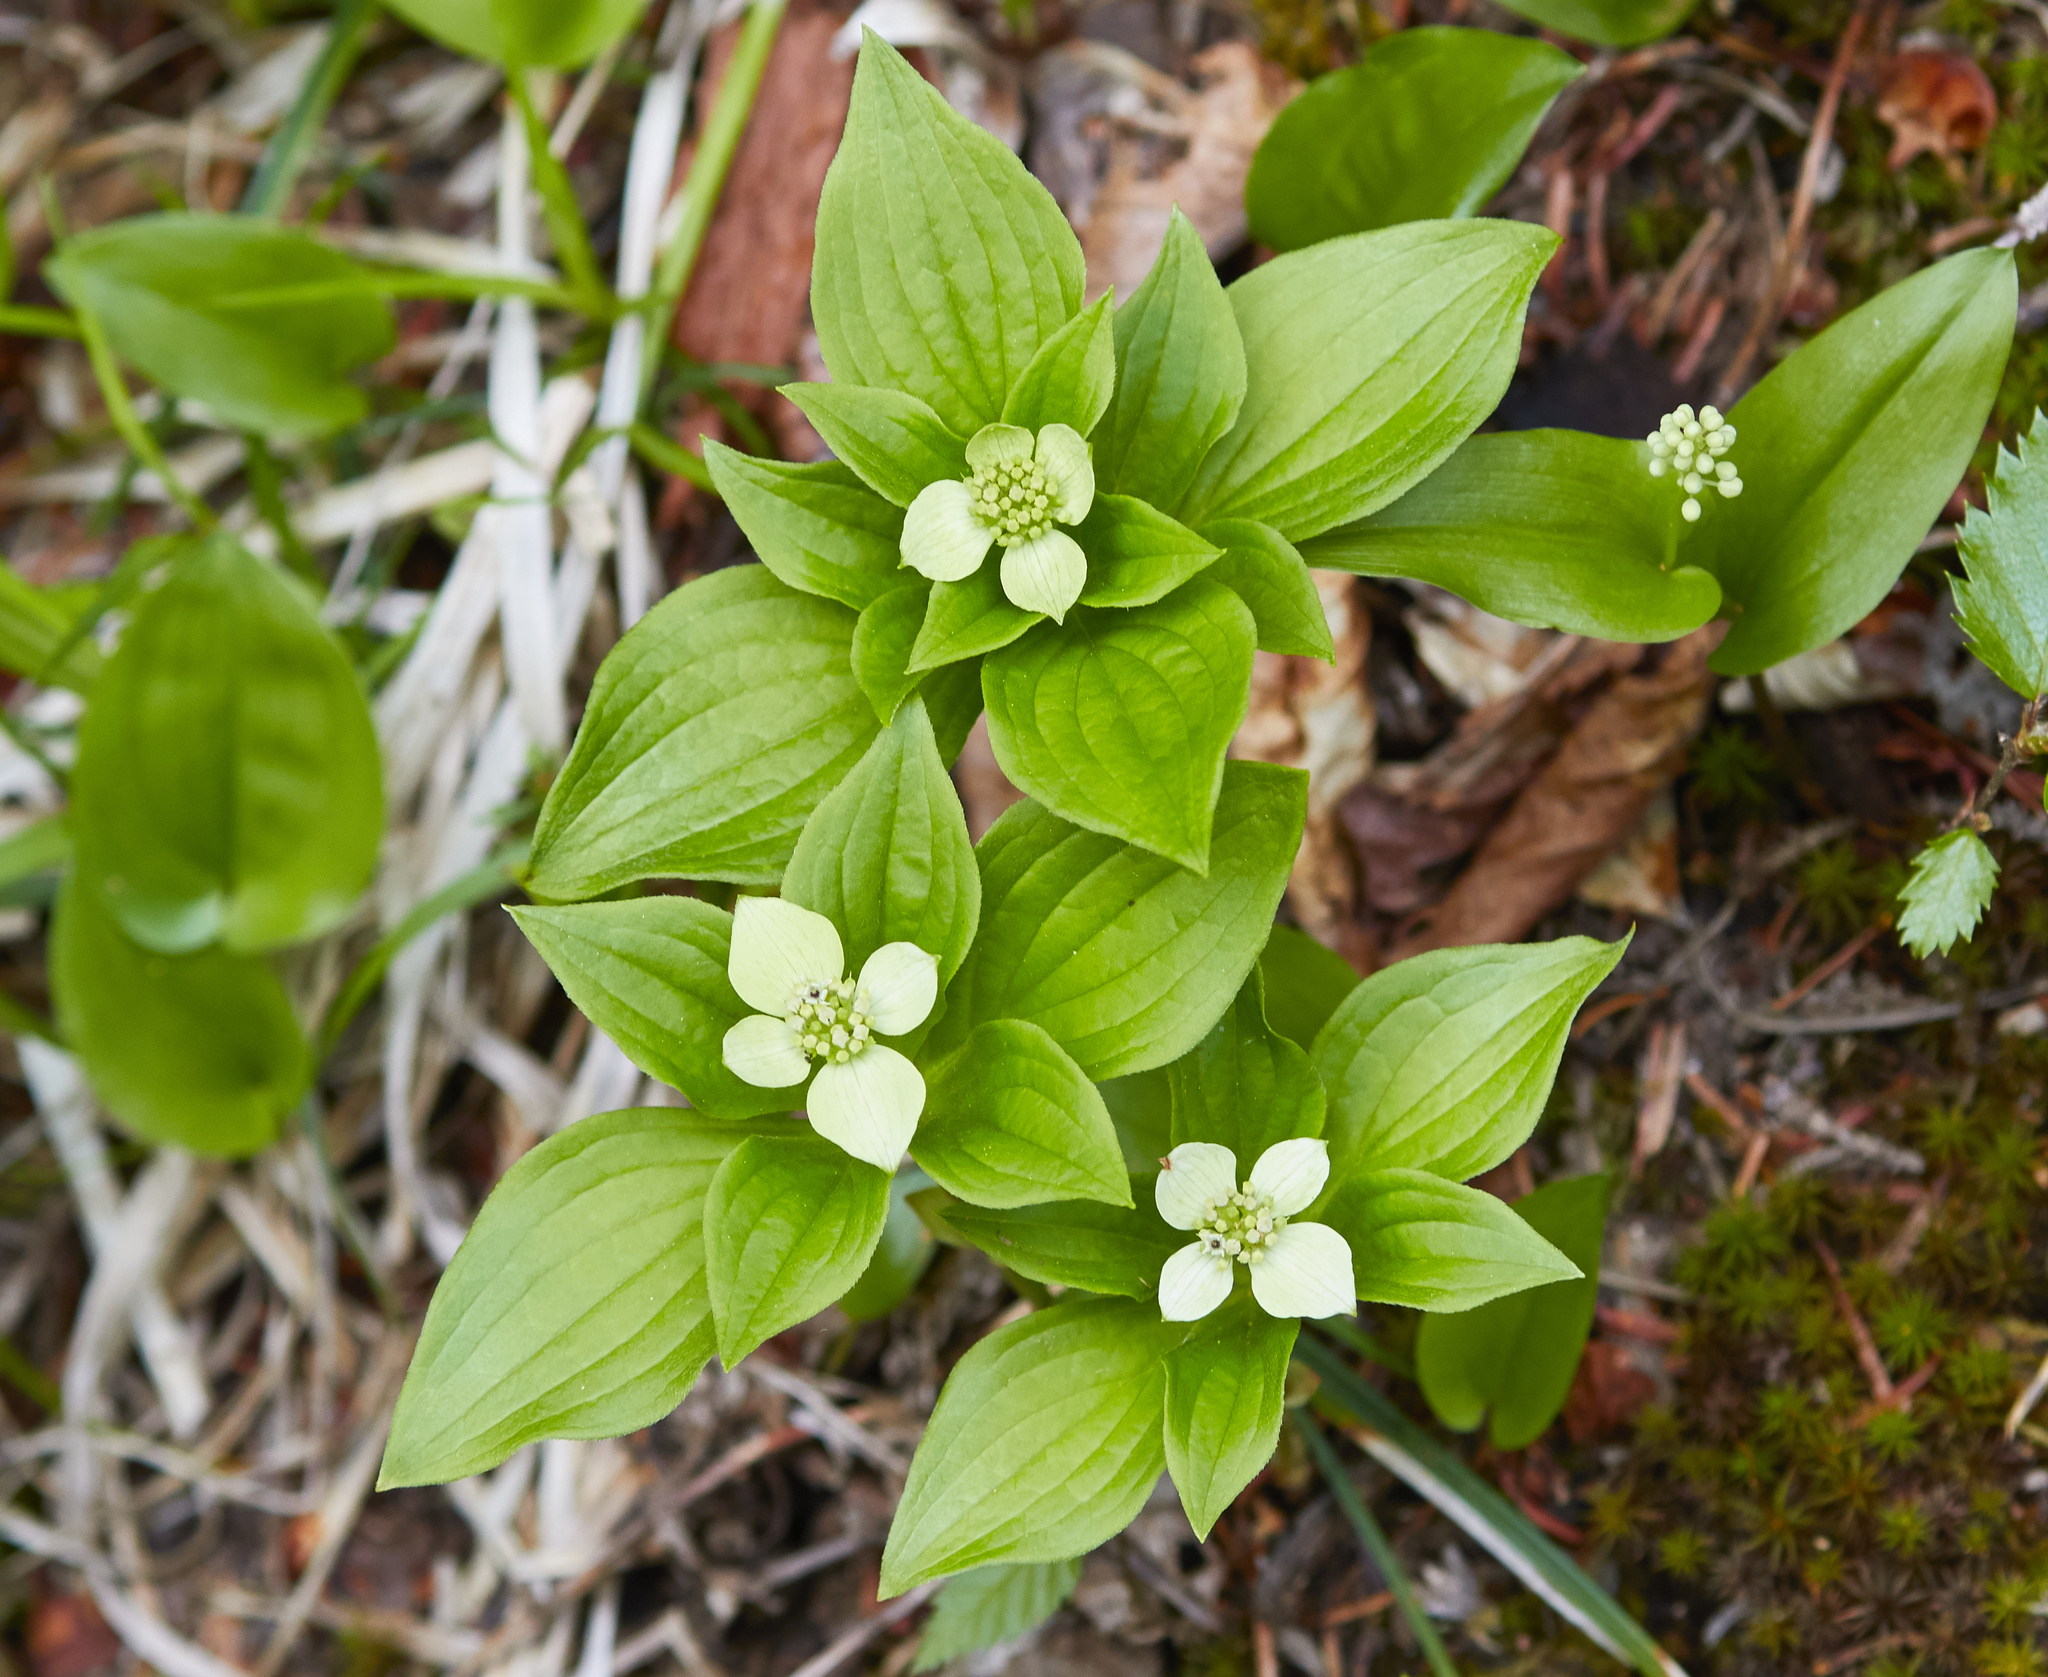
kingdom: Plantae
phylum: Tracheophyta
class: Magnoliopsida
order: Cornales
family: Cornaceae
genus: Cornus
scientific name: Cornus canadensis
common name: Creeping dogwood
